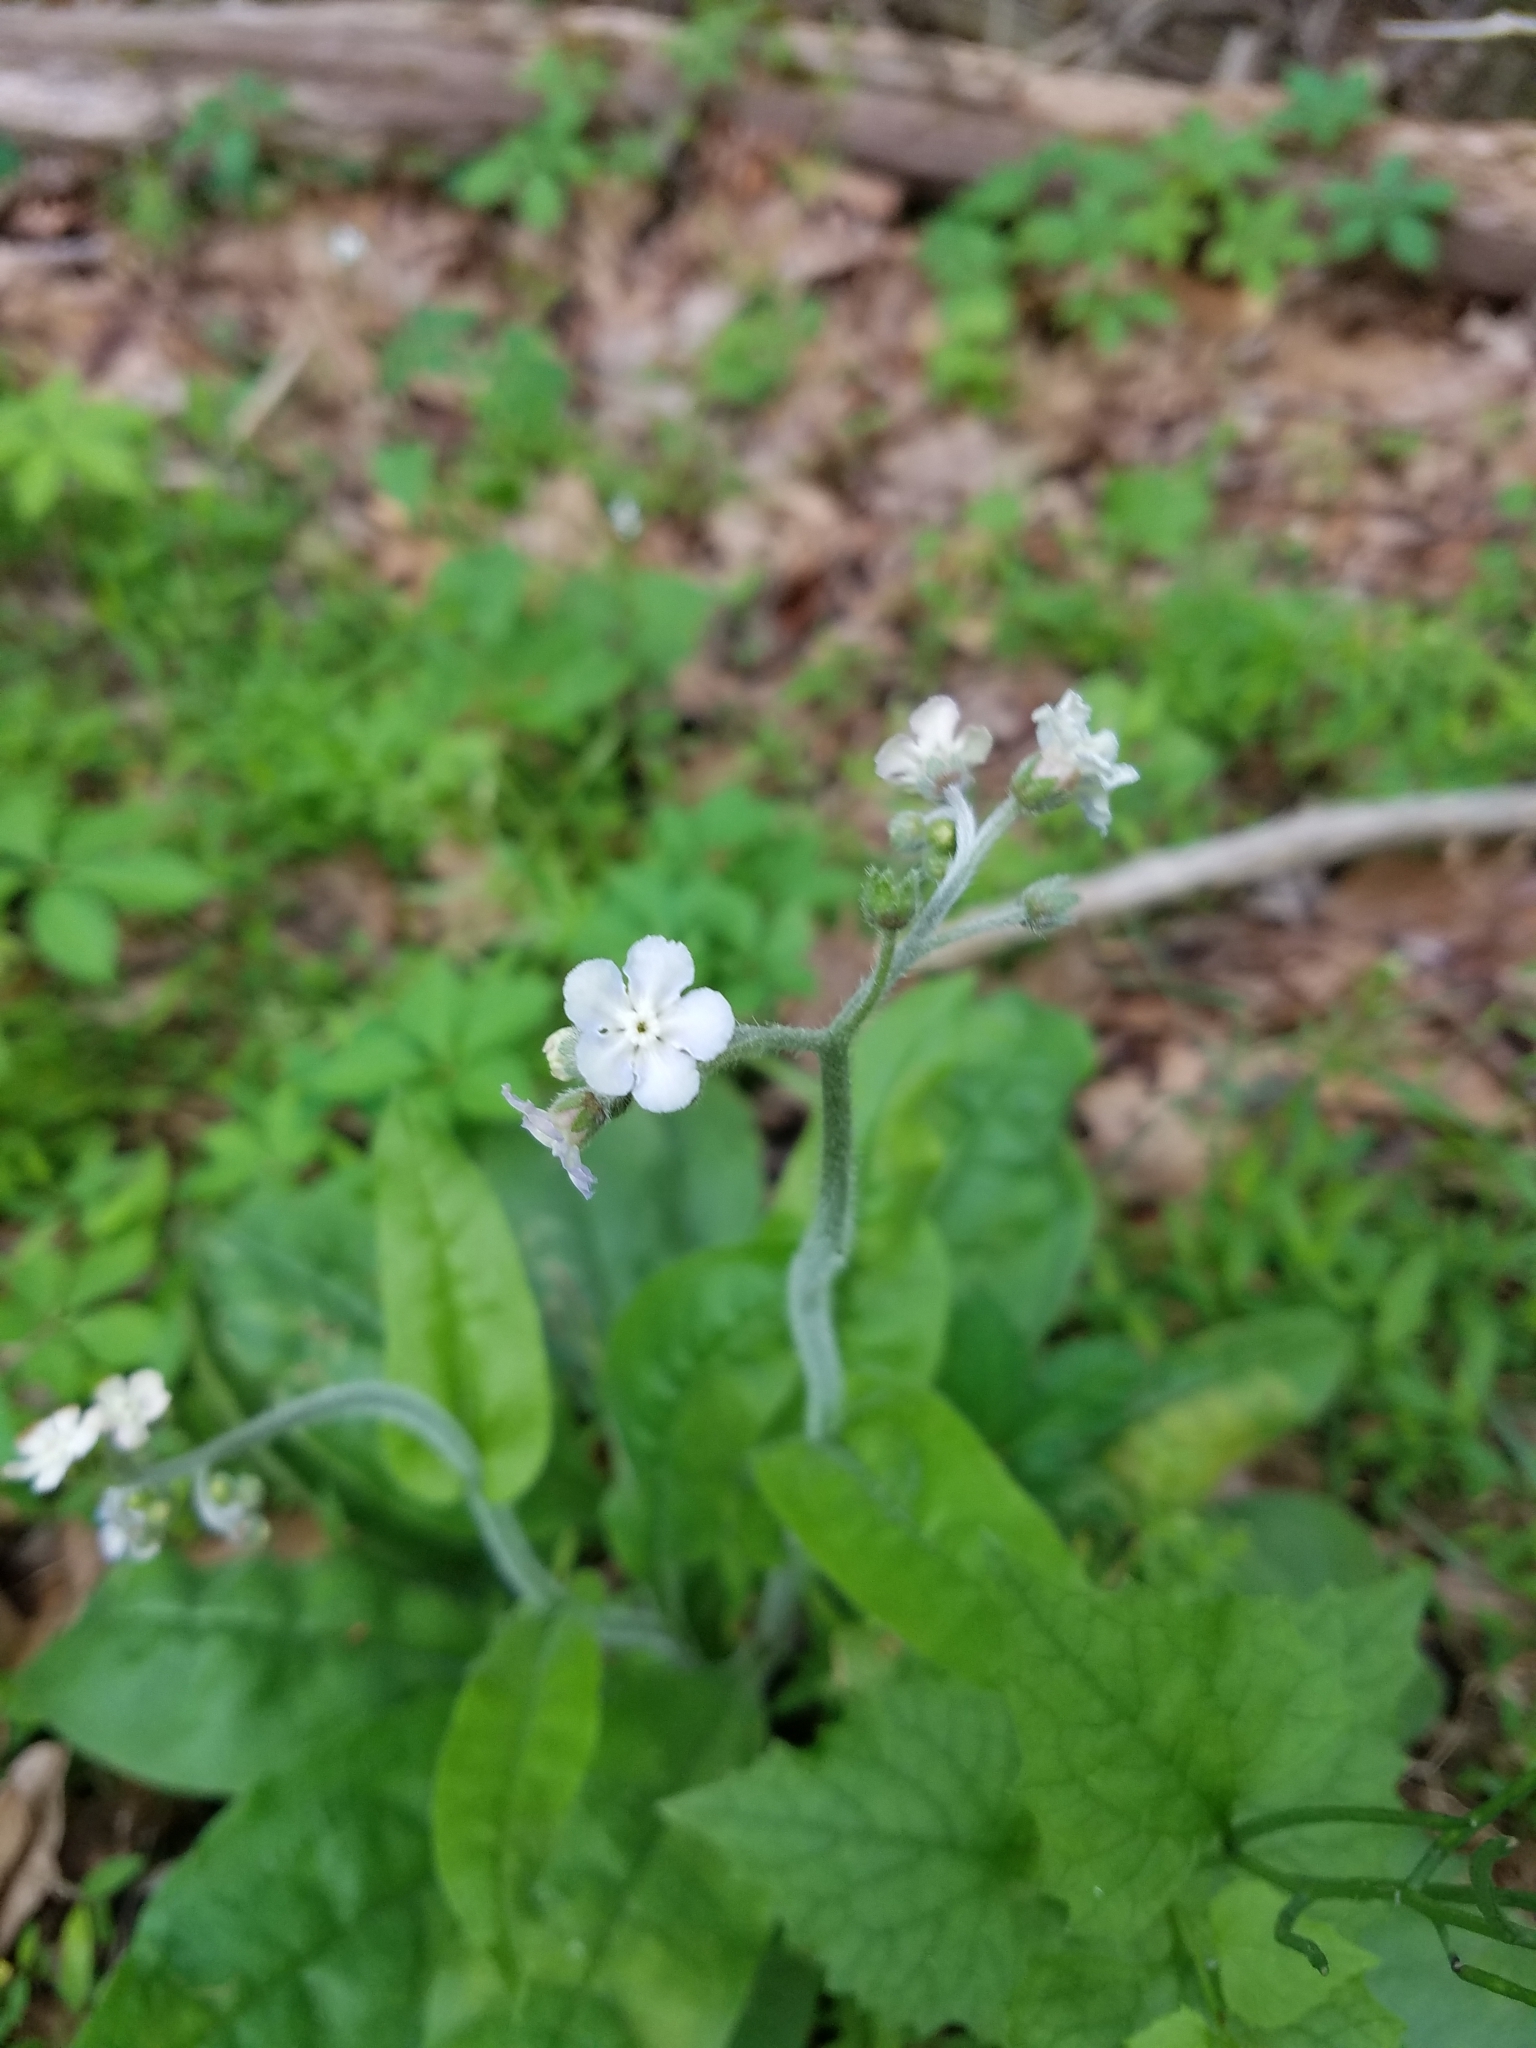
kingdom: Plantae
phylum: Tracheophyta
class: Magnoliopsida
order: Boraginales
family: Boraginaceae
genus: Andersonglossum
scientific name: Andersonglossum virginianum
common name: Wild comfrey
